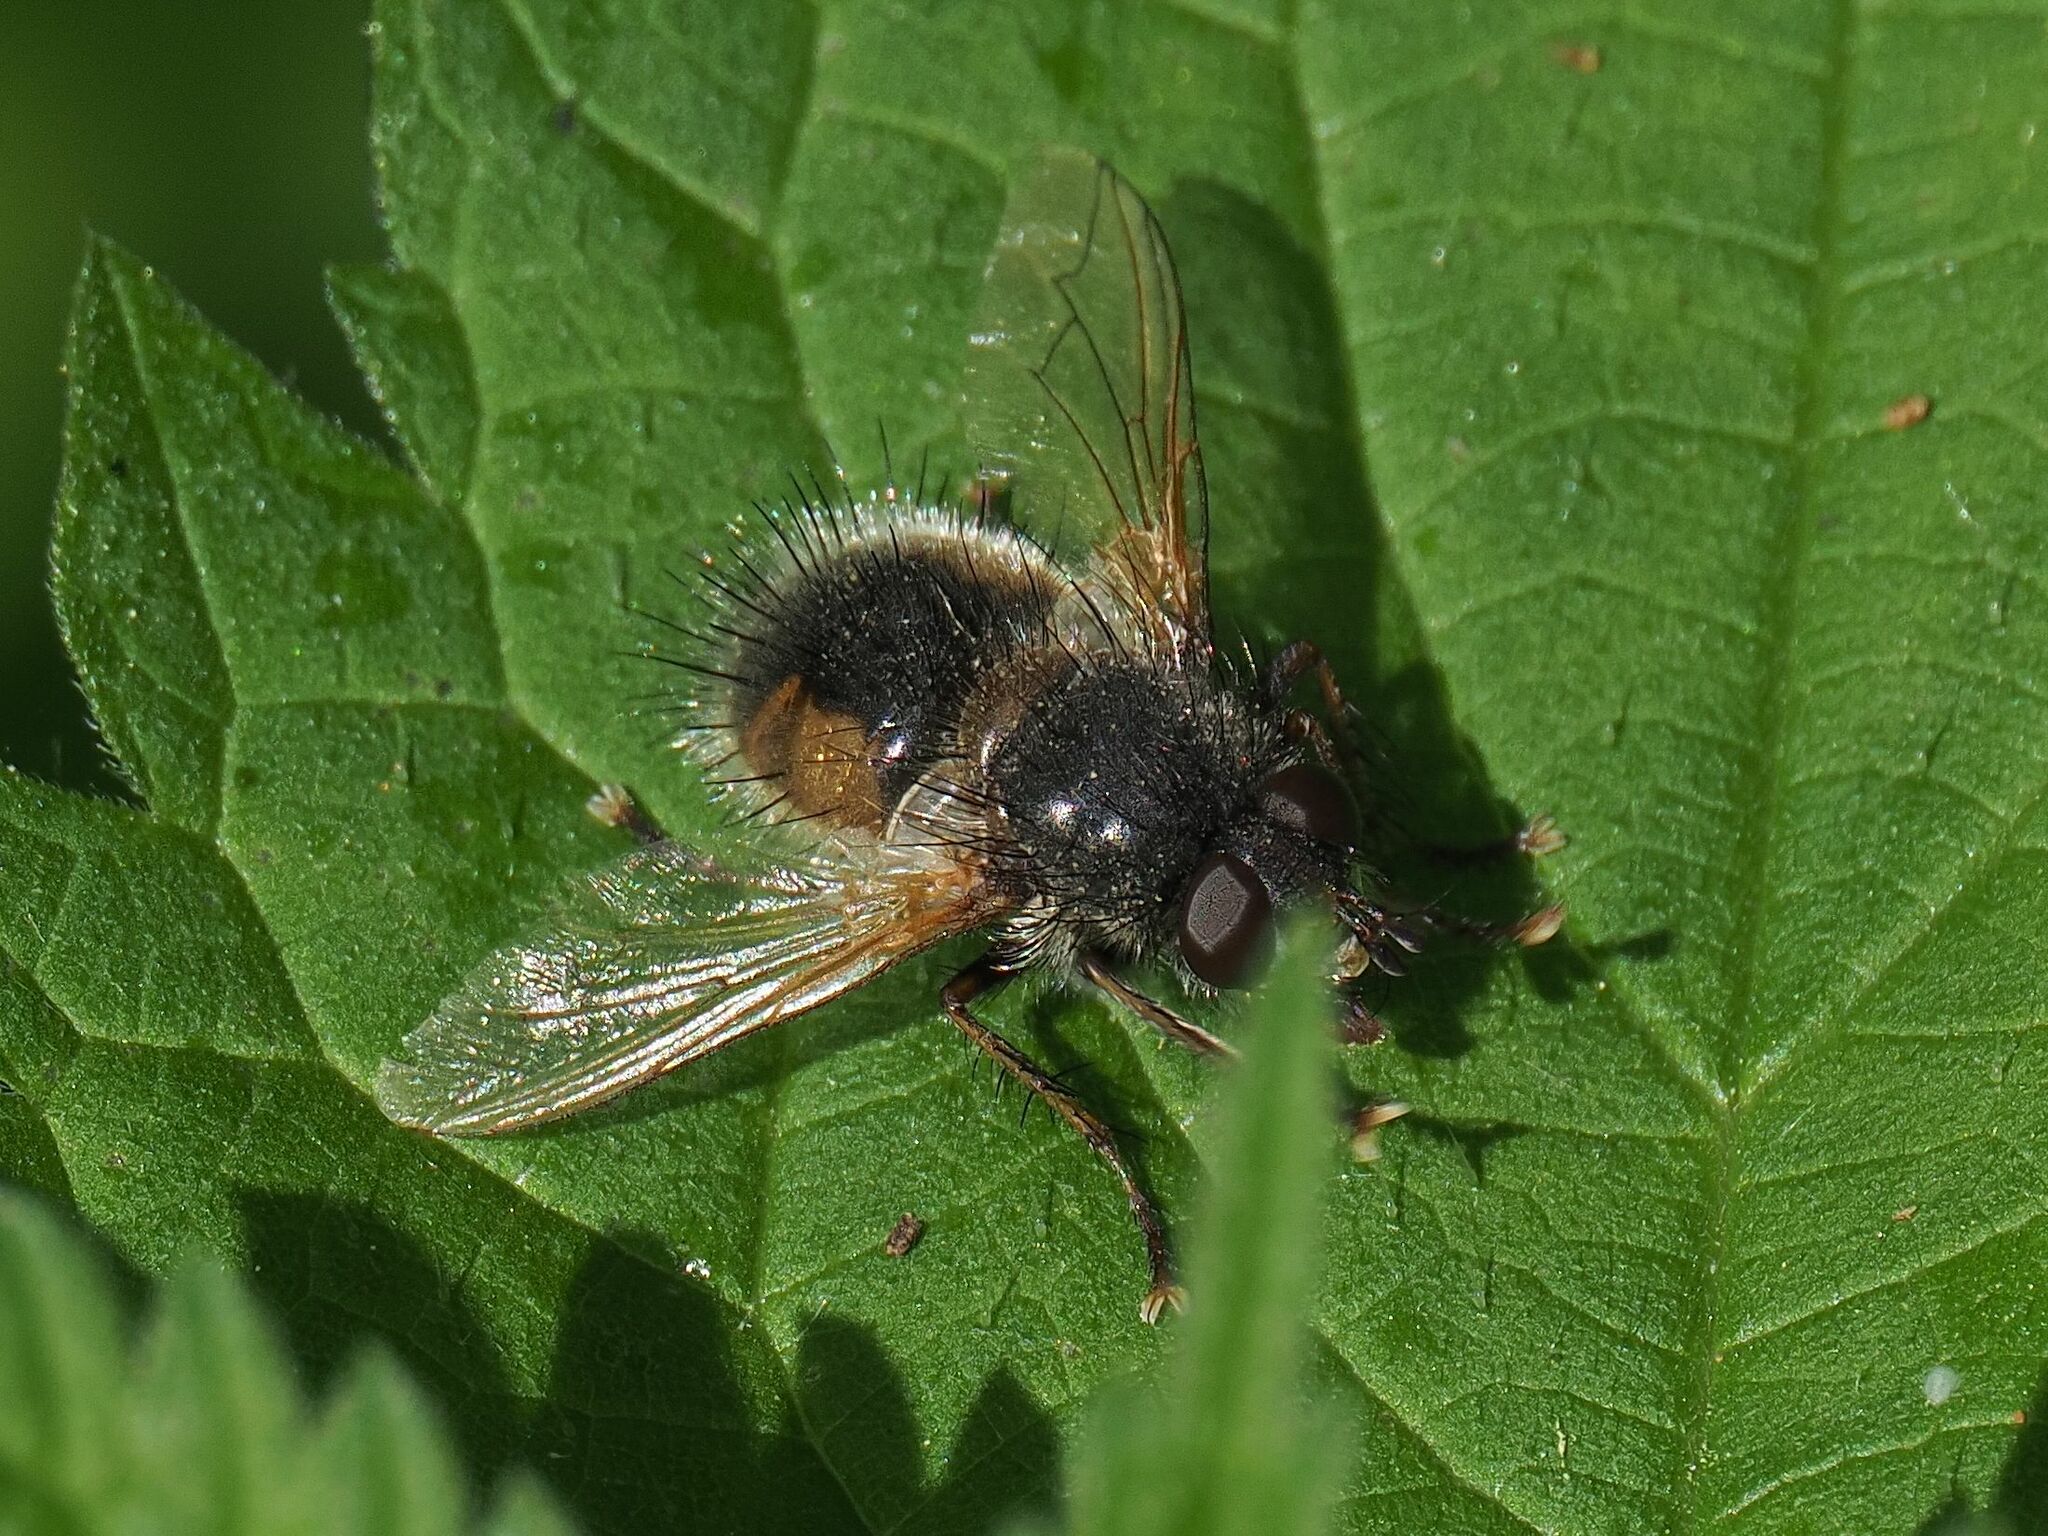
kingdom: Animalia
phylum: Arthropoda
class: Insecta
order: Diptera
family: Tachinidae
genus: Tachina
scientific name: Tachina lurida
